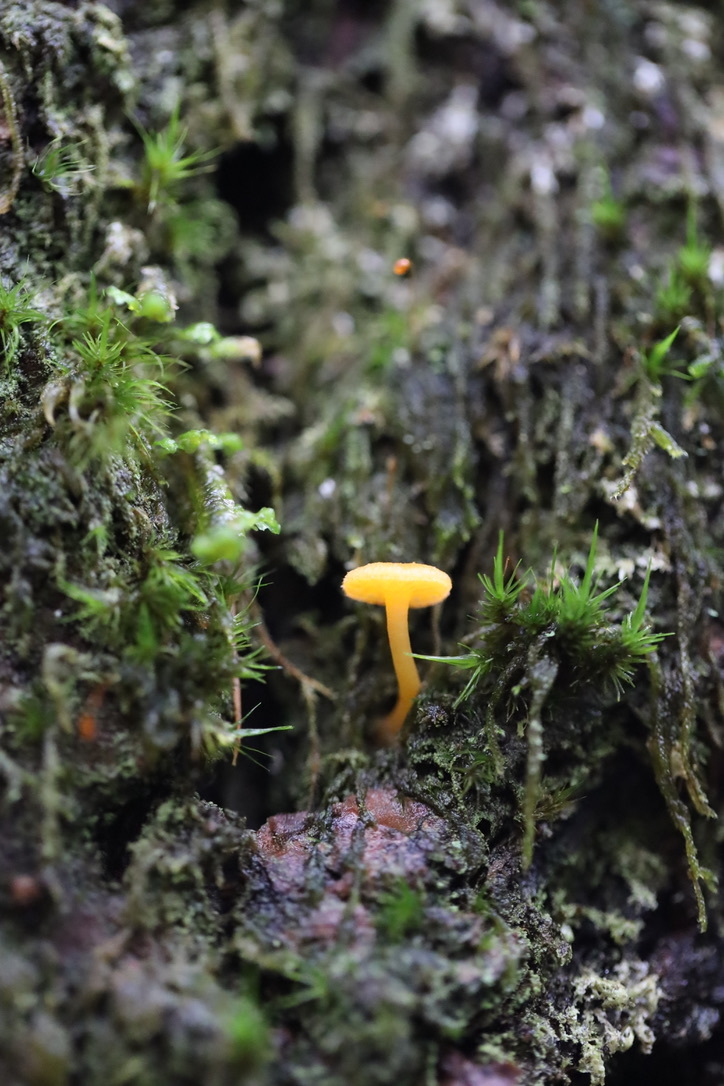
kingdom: Fungi
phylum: Basidiomycota
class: Agaricomycetes
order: Agaricales
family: Hygrophoraceae
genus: Chrysomphalina
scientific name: Chrysomphalina aurantiaca
